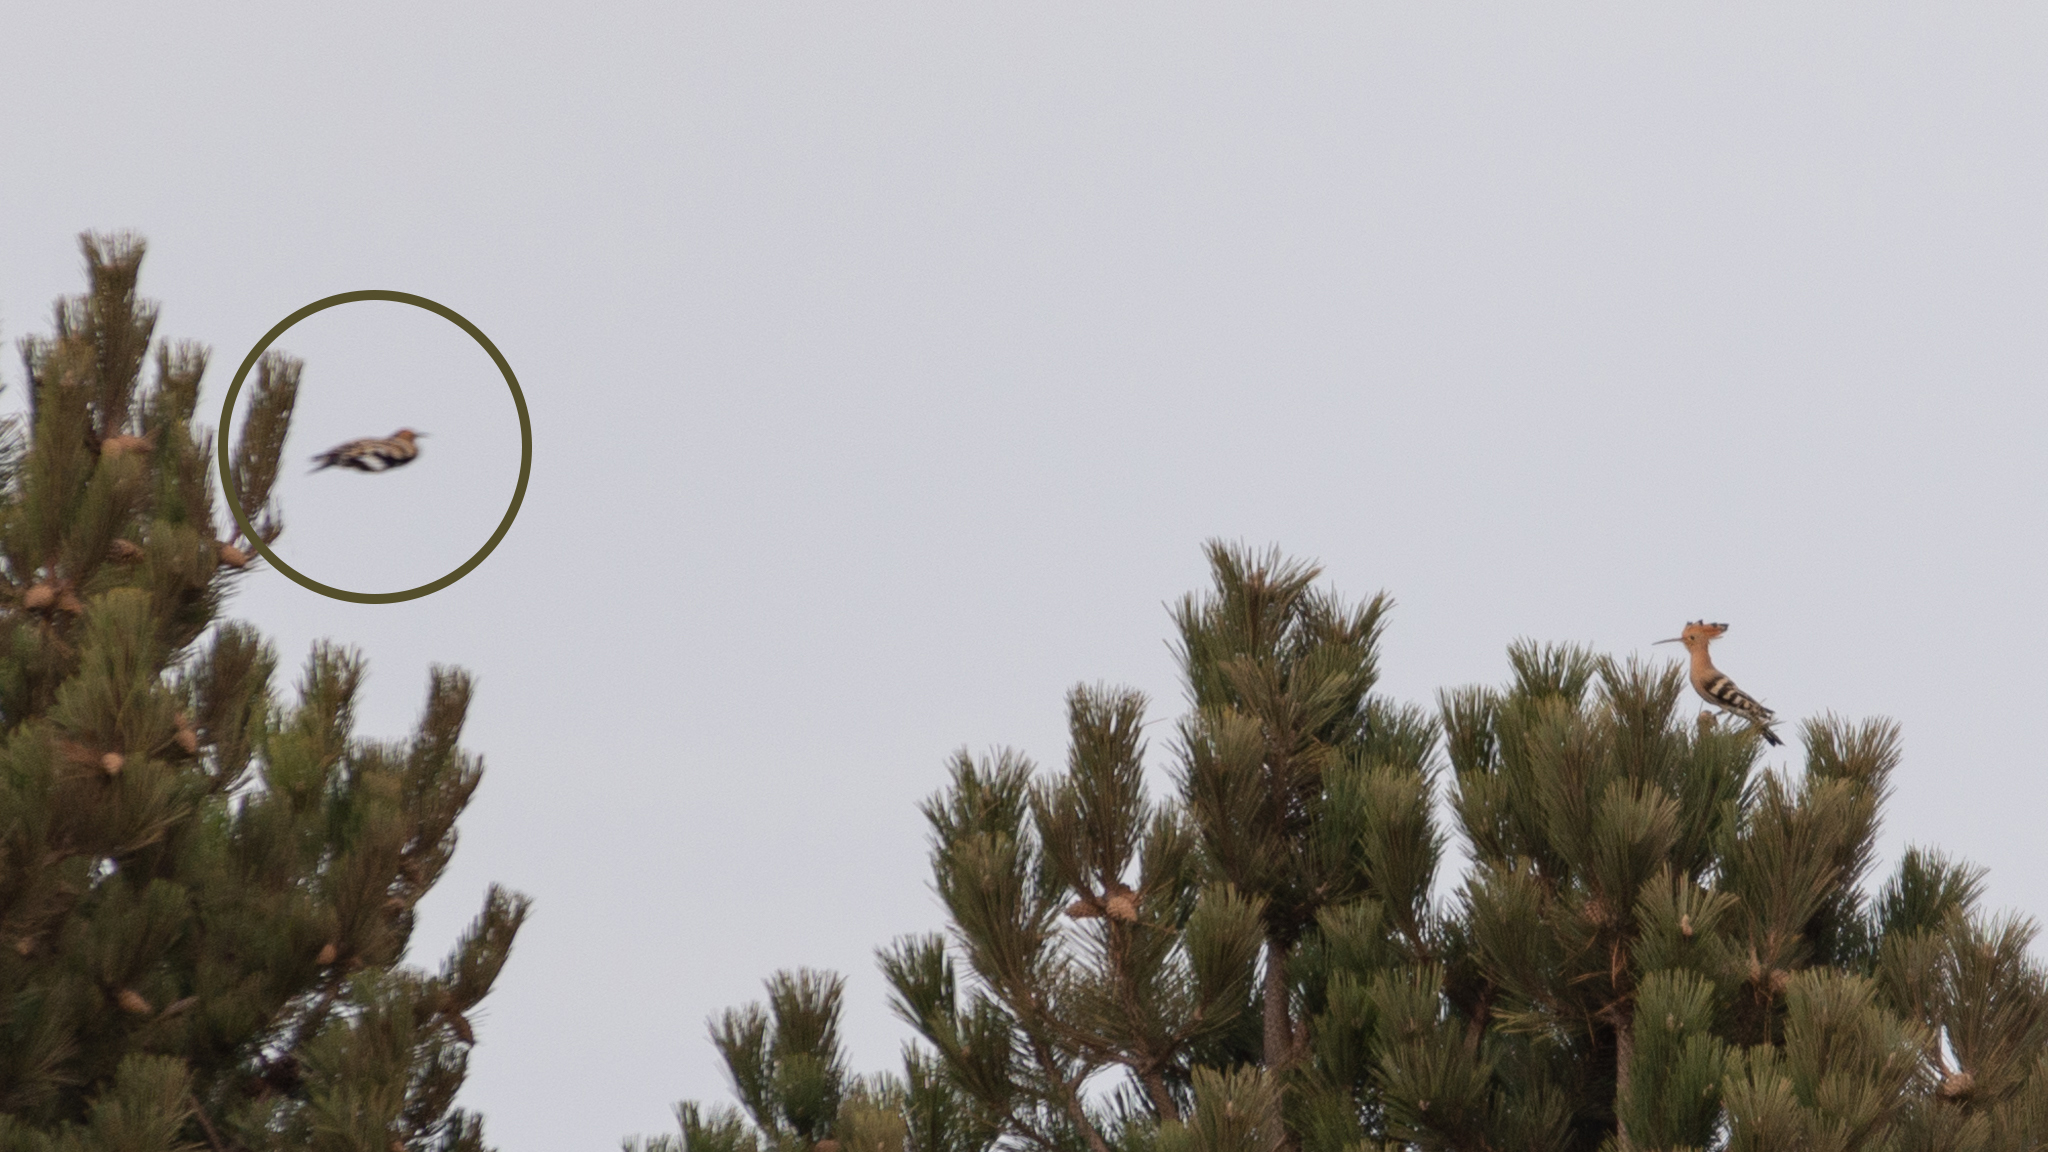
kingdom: Animalia
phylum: Chordata
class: Aves
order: Bucerotiformes
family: Upupidae
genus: Upupa
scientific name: Upupa epops
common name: Eurasian hoopoe
